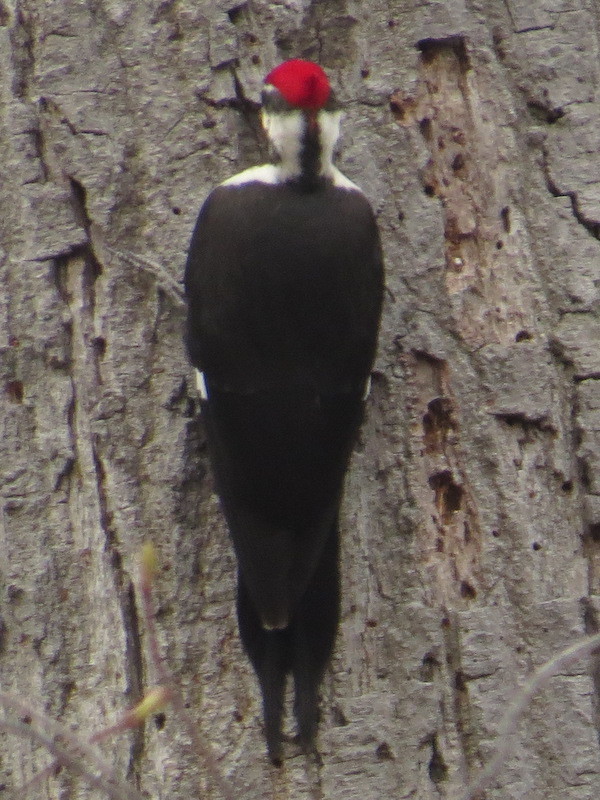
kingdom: Animalia
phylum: Chordata
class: Aves
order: Piciformes
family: Picidae
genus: Dryocopus
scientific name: Dryocopus pileatus
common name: Pileated woodpecker
